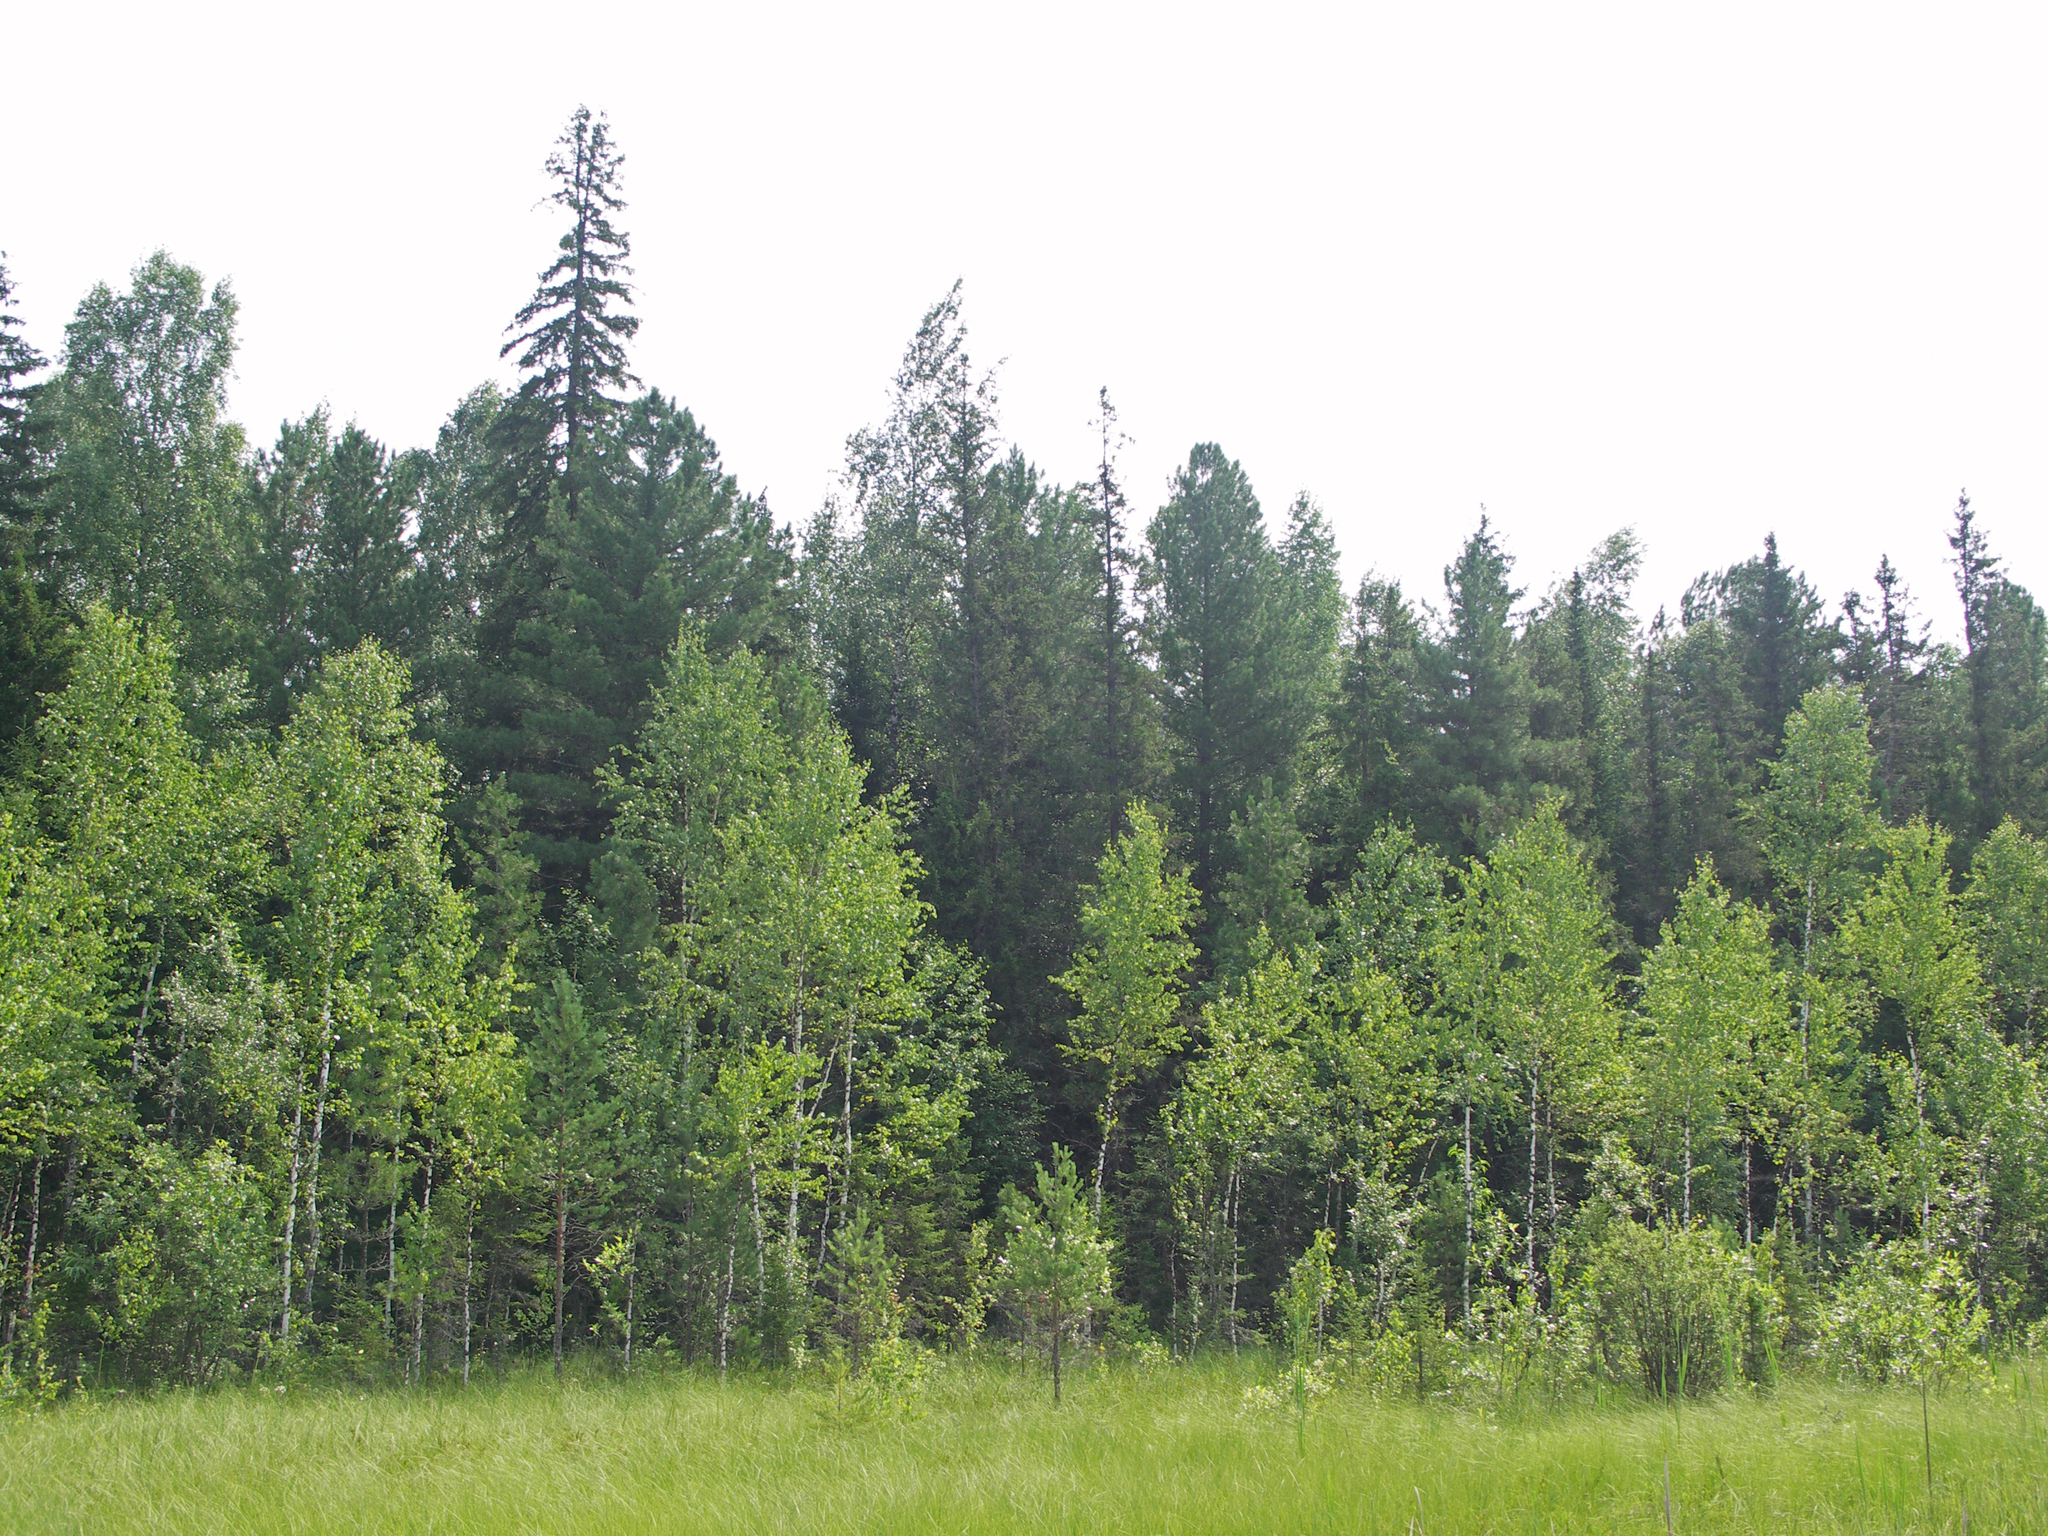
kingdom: Plantae
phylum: Tracheophyta
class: Pinopsida
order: Pinales
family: Pinaceae
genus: Picea
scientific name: Picea obovata
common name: Siberian spruce
